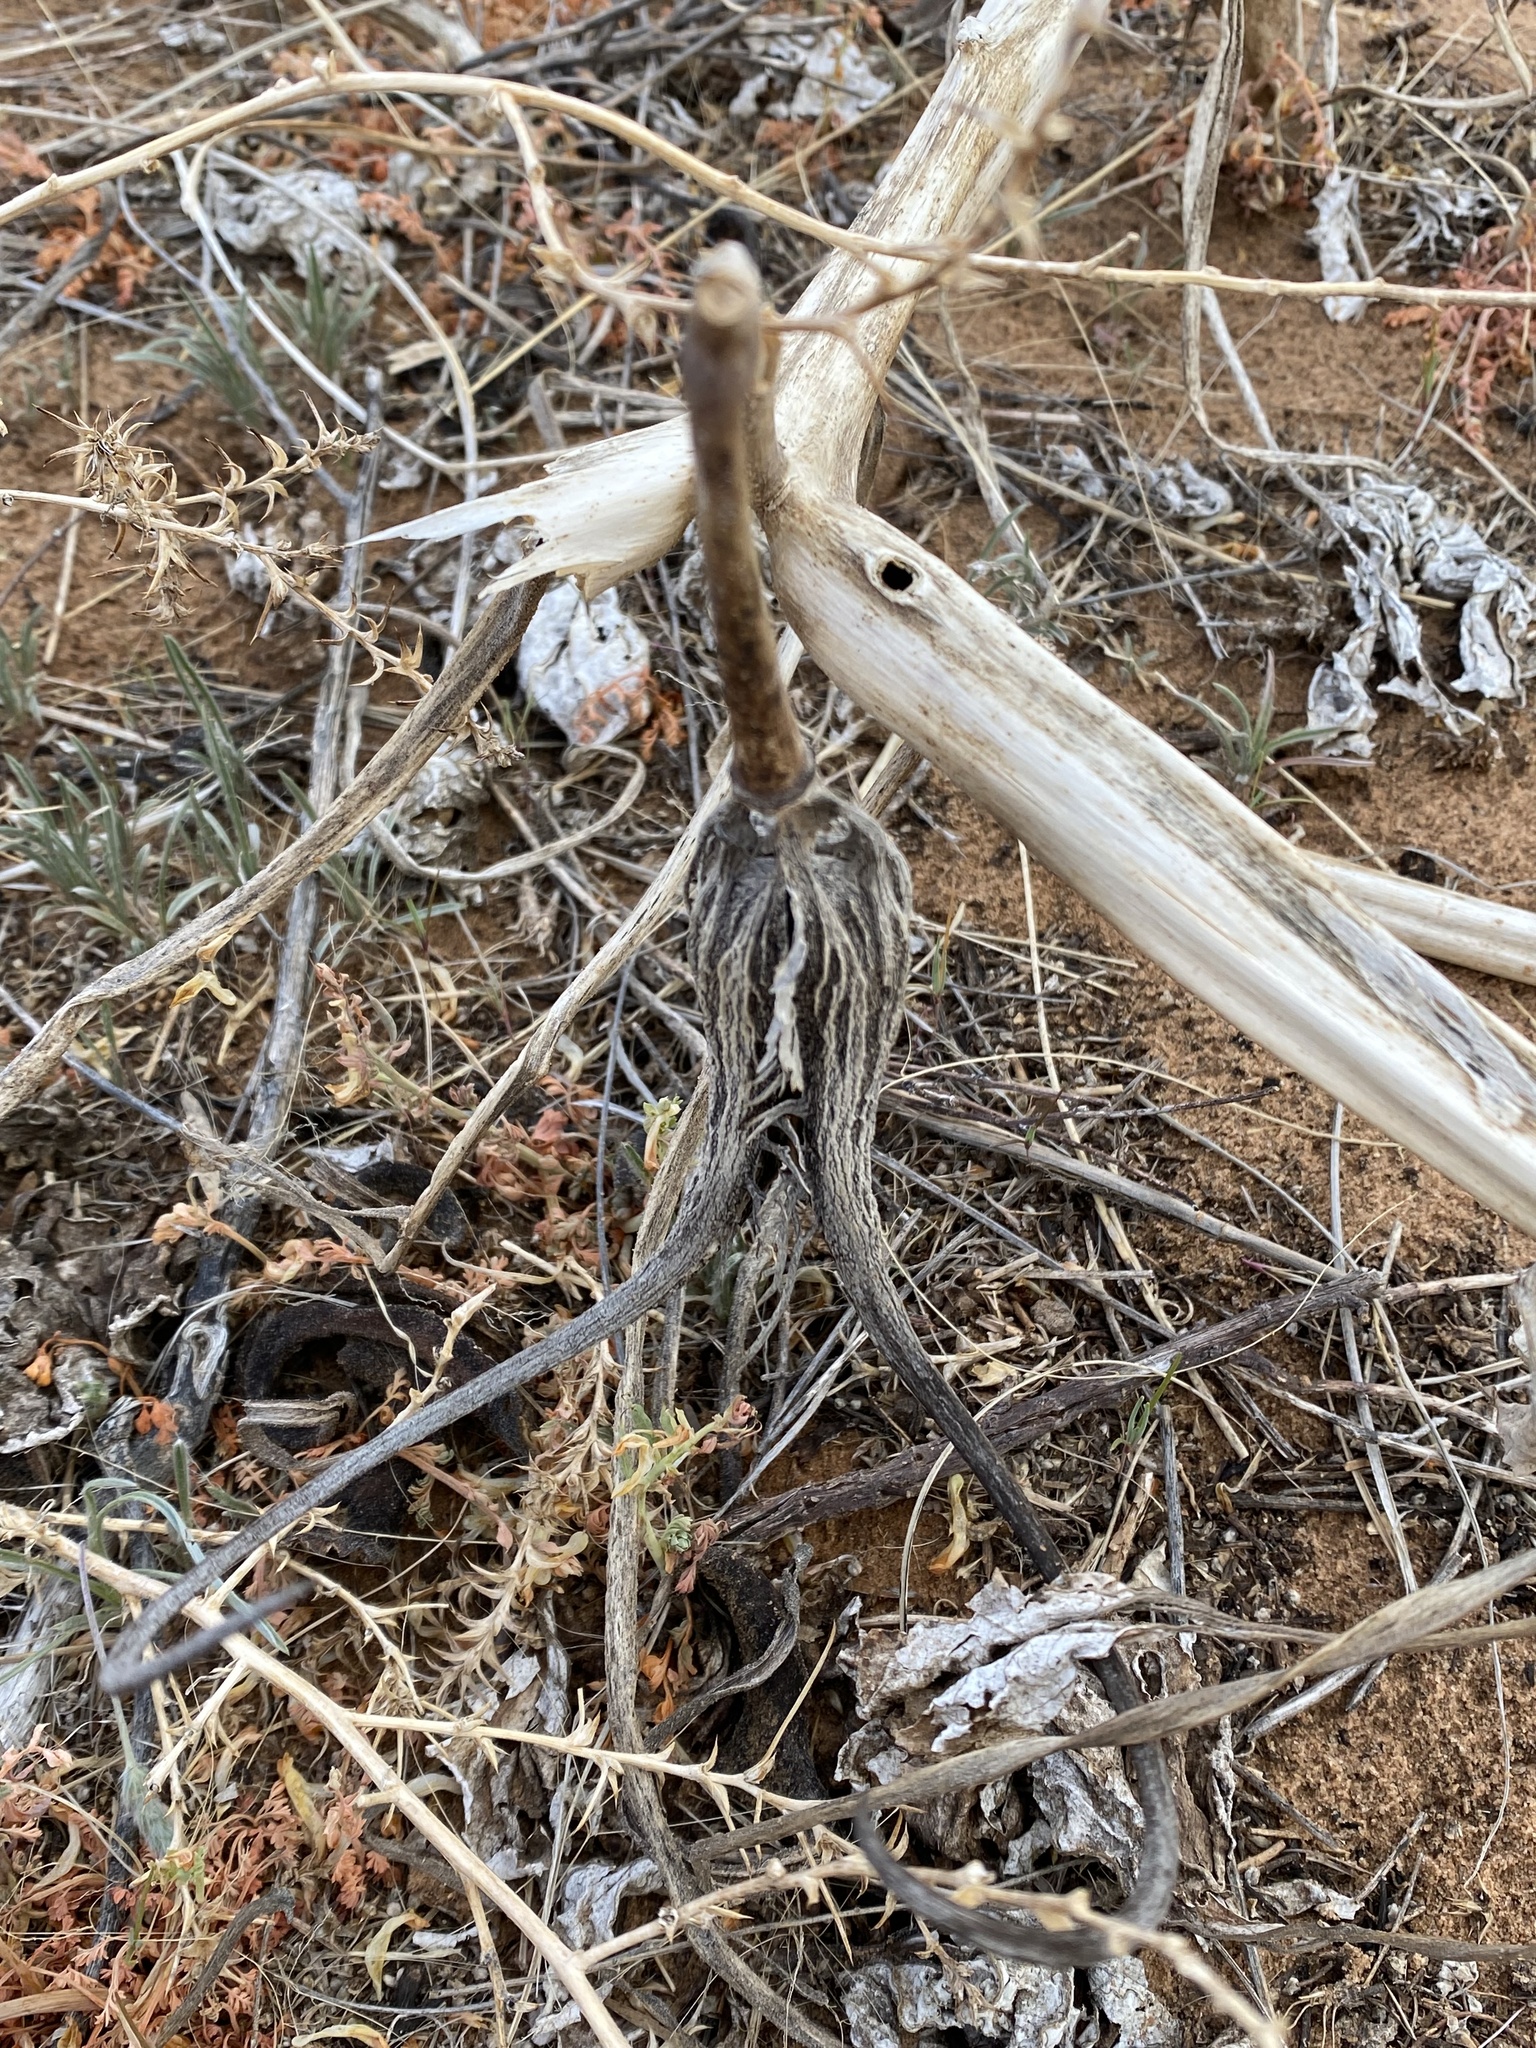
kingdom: Plantae
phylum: Tracheophyta
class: Magnoliopsida
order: Lamiales
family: Martyniaceae
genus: Proboscidea
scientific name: Proboscidea louisianica
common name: Elephant tusks
